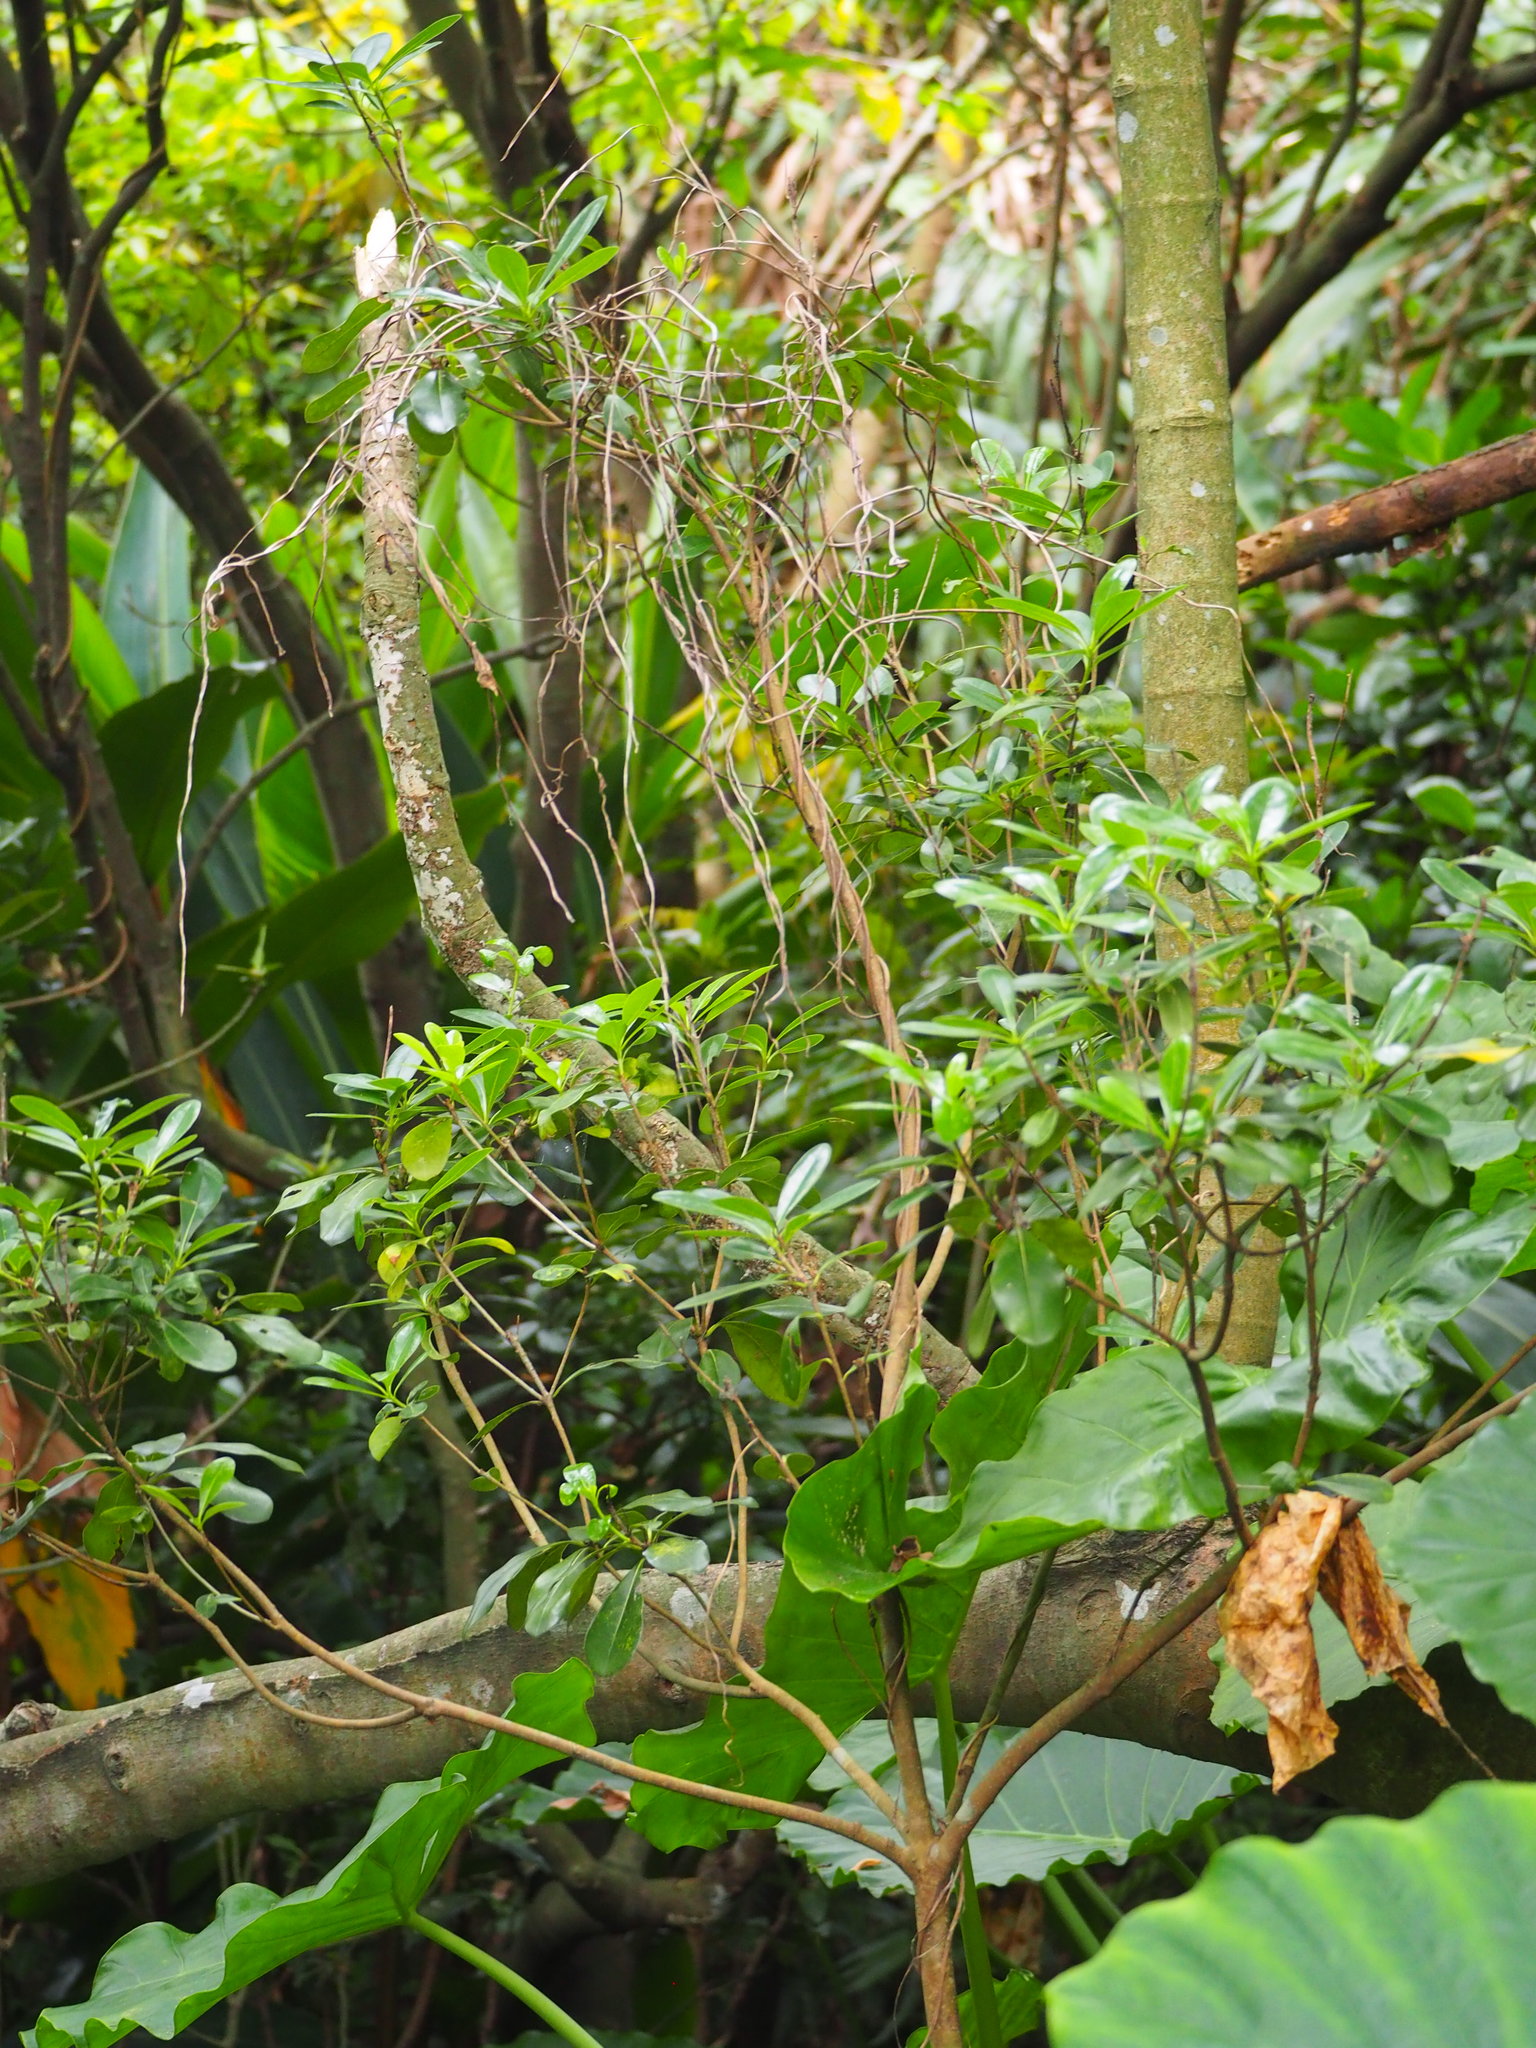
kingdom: Plantae
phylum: Tracheophyta
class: Magnoliopsida
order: Apiales
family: Pittosporaceae
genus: Pittosporum
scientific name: Pittosporum tobira
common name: Japanese cheesewood
